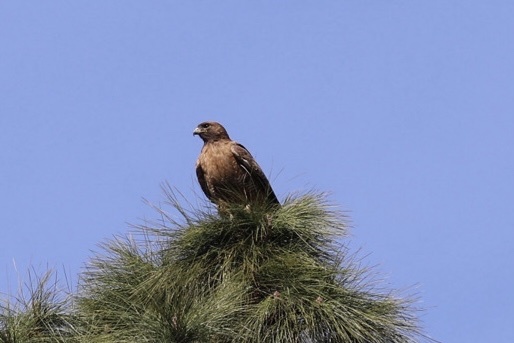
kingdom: Animalia
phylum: Chordata
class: Aves
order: Accipitriformes
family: Accipitridae
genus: Buteo
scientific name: Buteo jamaicensis
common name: Red-tailed hawk
